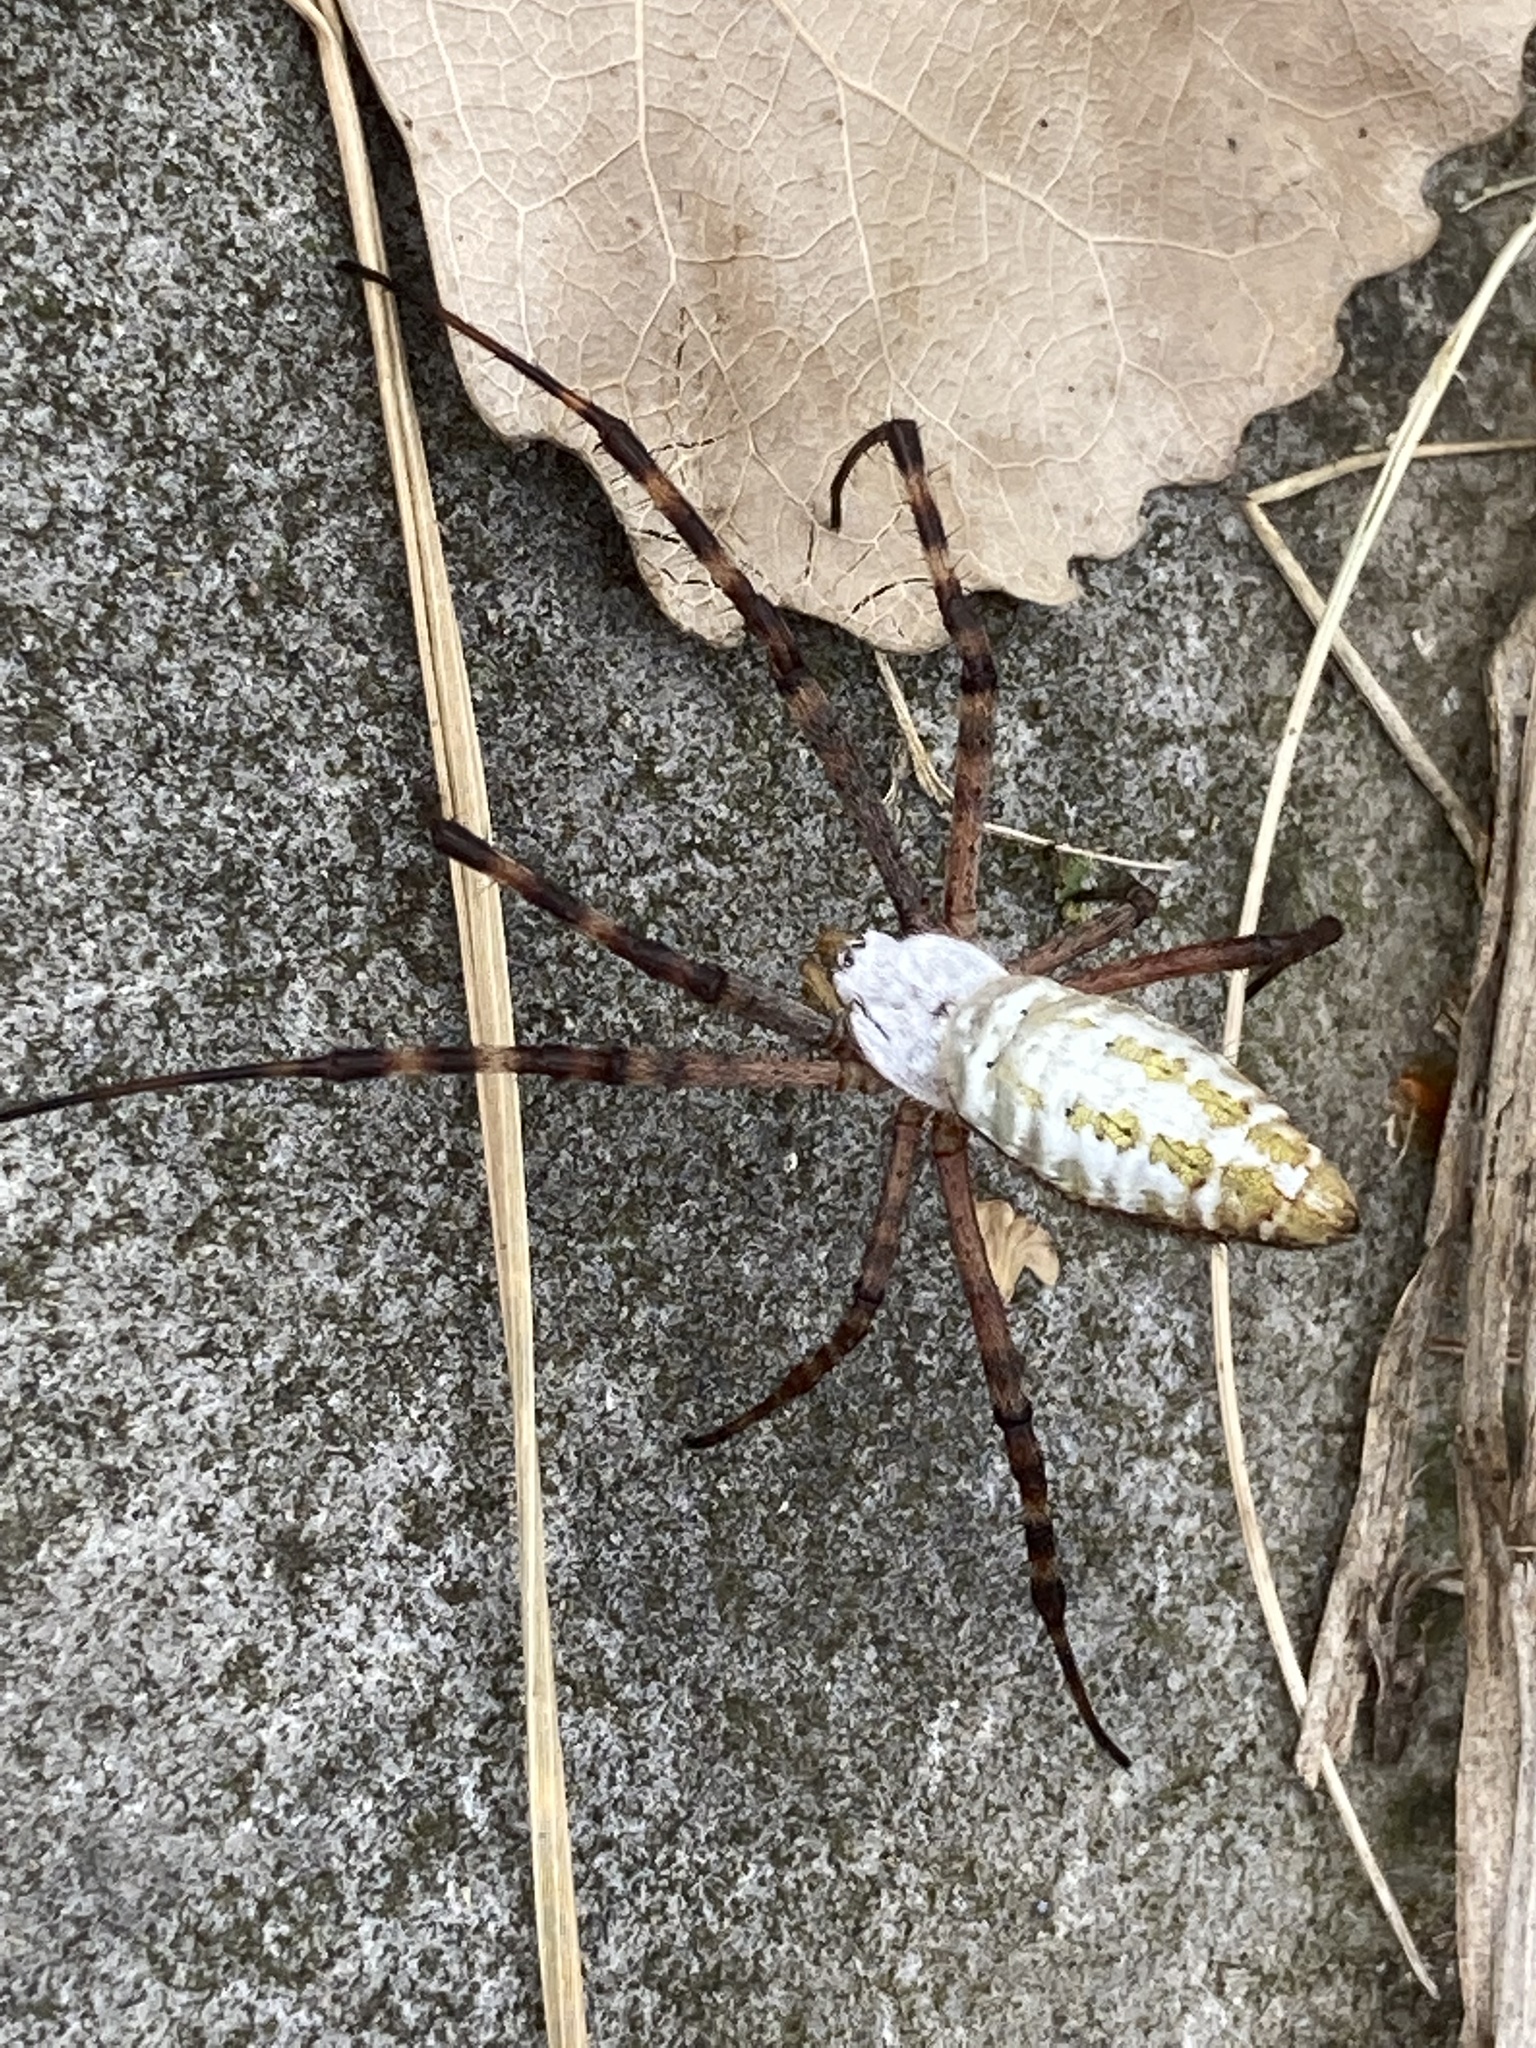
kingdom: Animalia
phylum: Arthropoda
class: Arachnida
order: Araneae
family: Araneidae
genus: Argiope
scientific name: Argiope trifasciata
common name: Banded garden spider
